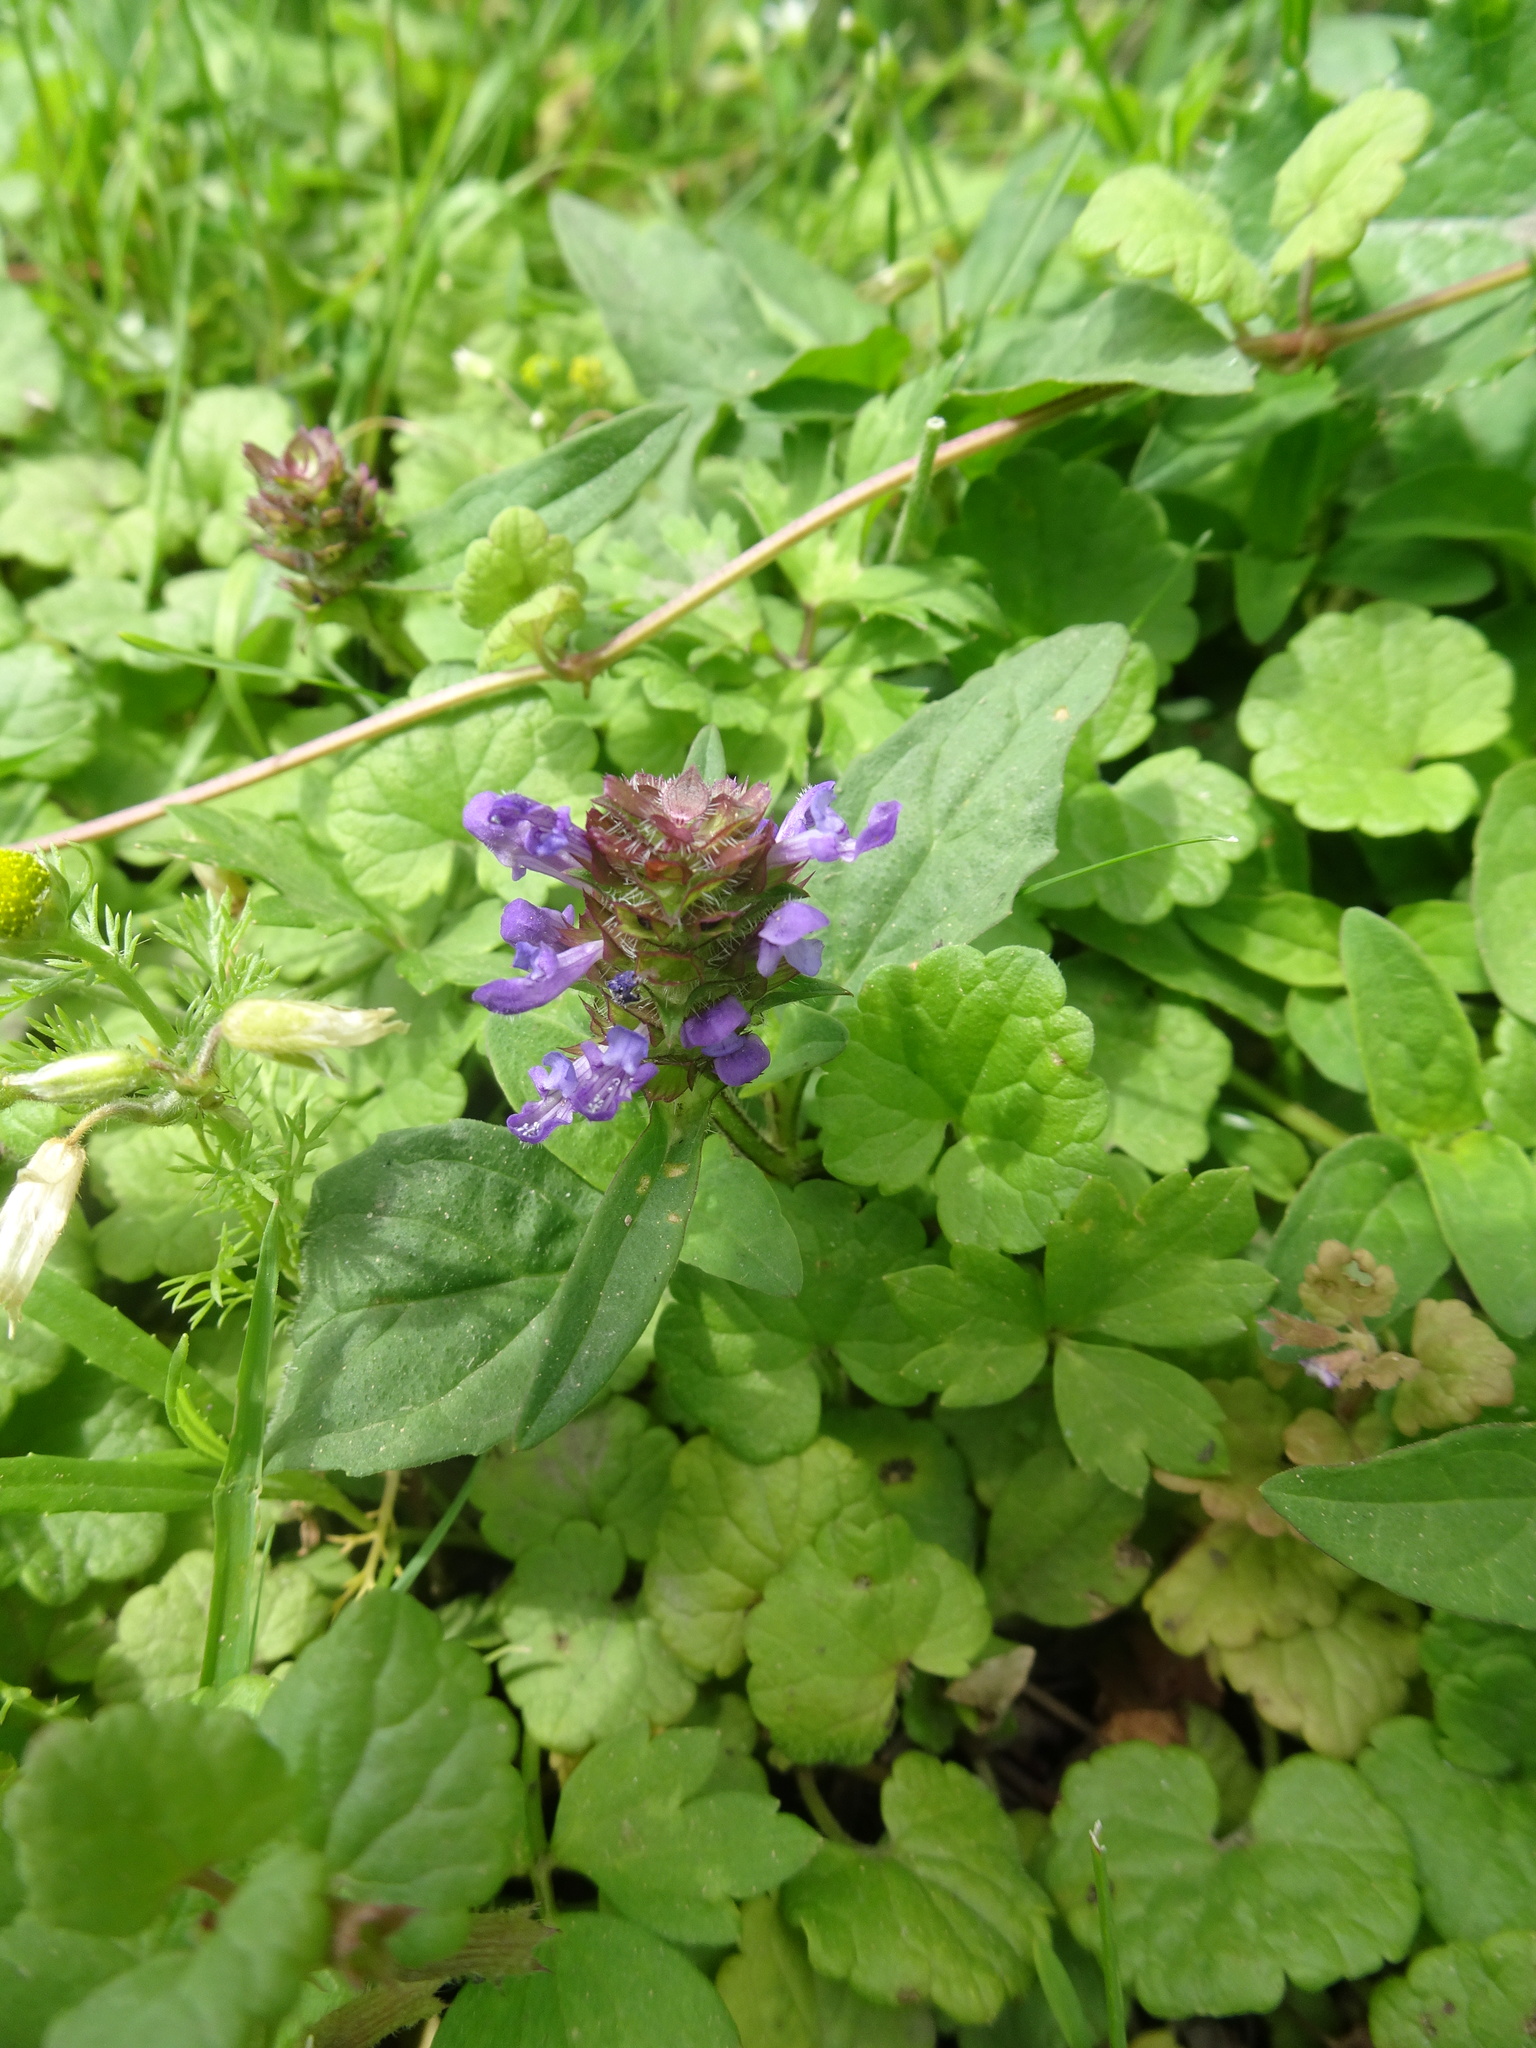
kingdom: Plantae
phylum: Tracheophyta
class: Magnoliopsida
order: Lamiales
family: Lamiaceae
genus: Prunella
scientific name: Prunella vulgaris
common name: Heal-all
